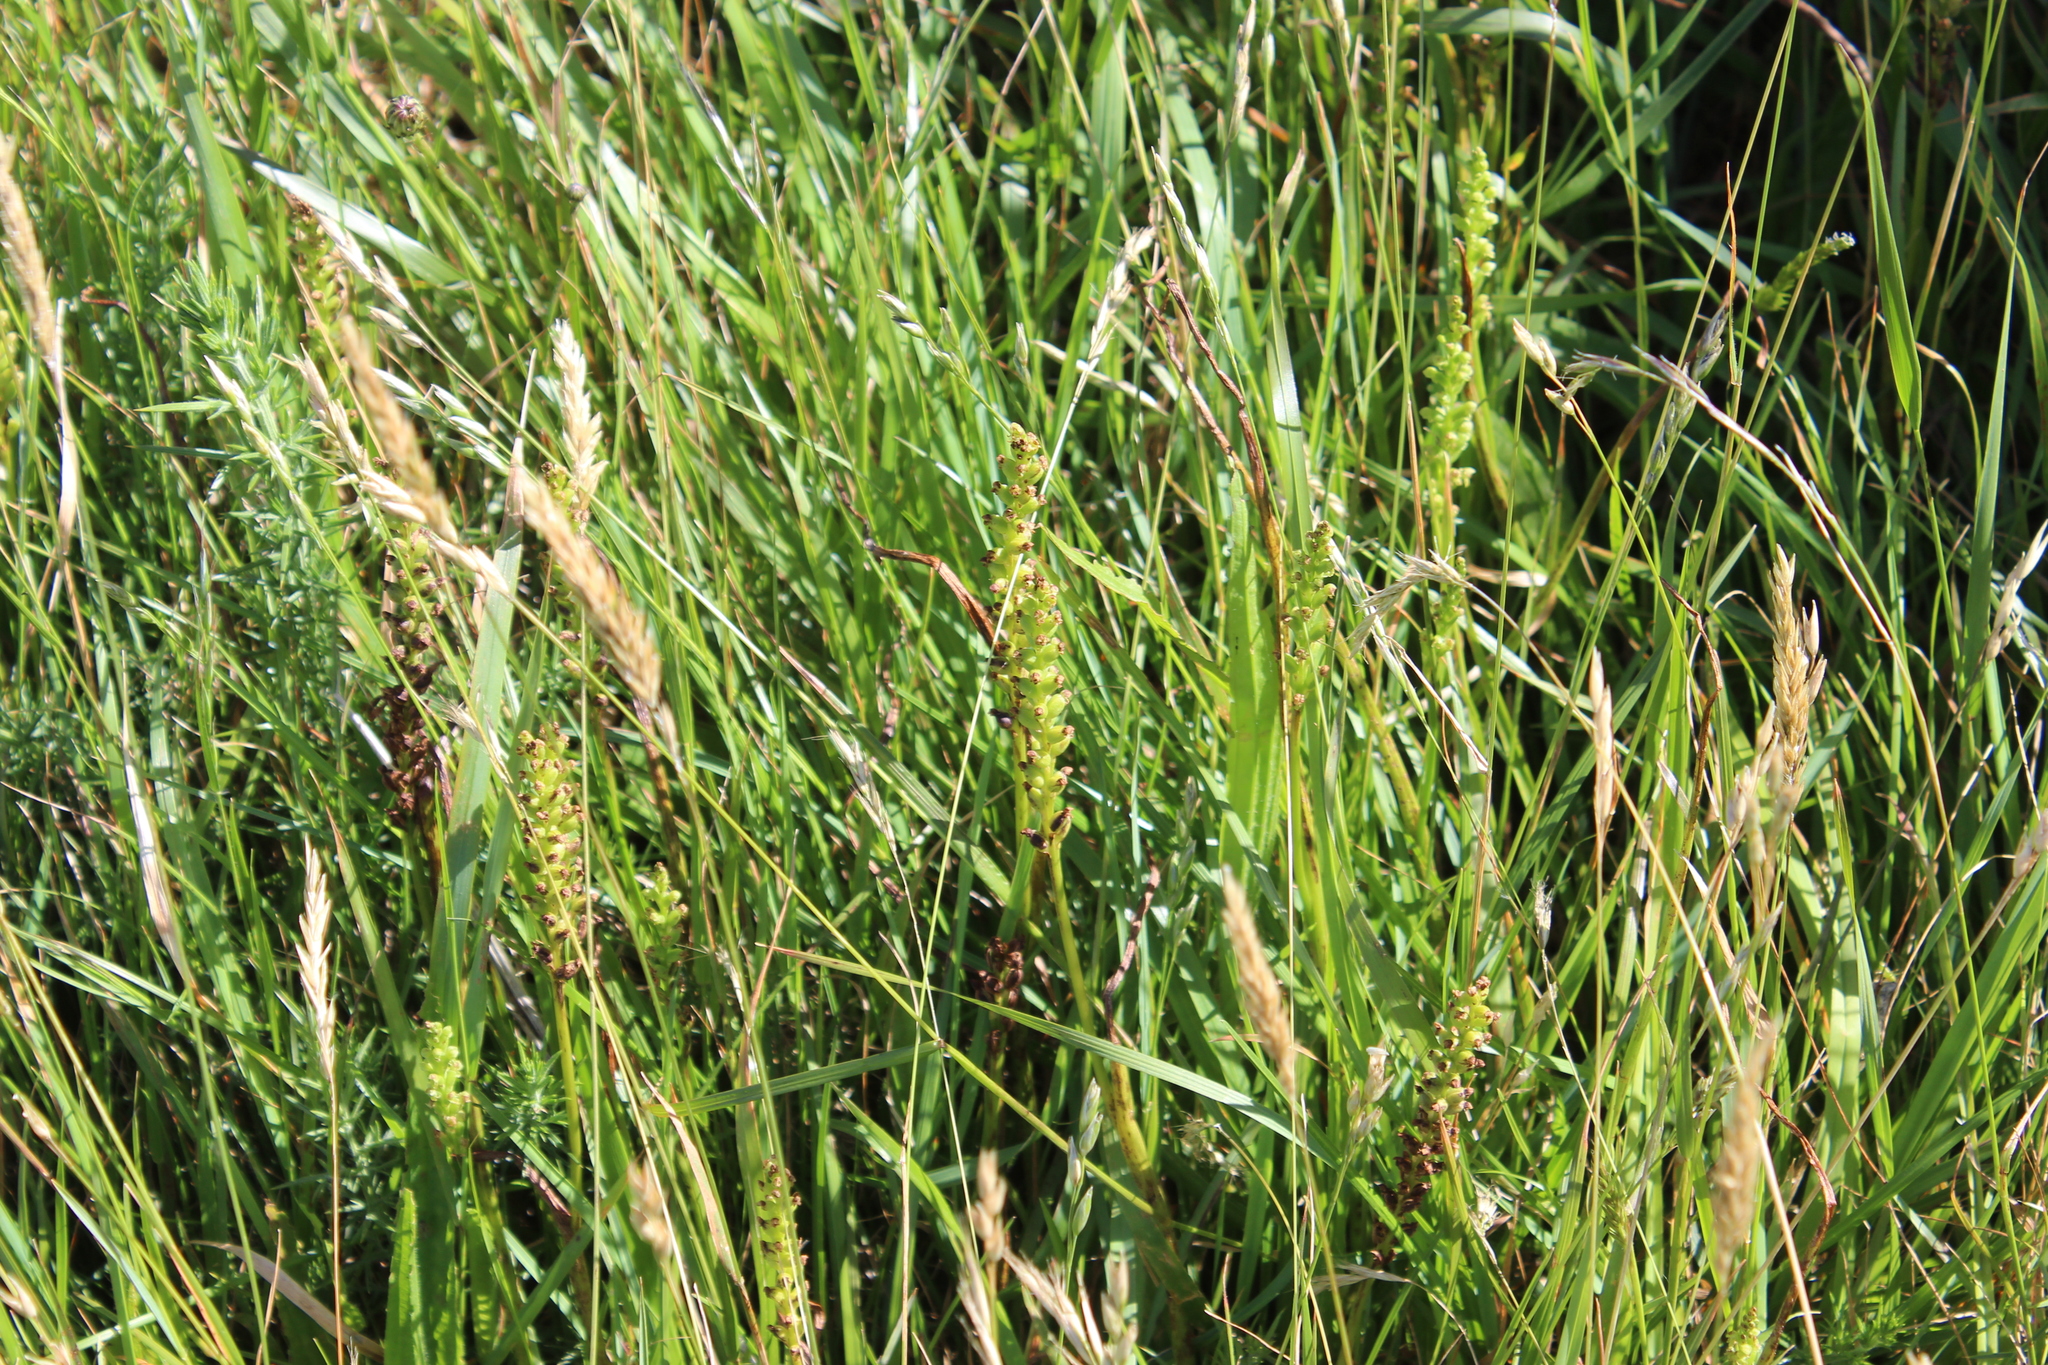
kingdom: Plantae
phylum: Tracheophyta
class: Liliopsida
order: Asparagales
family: Orchidaceae
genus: Microtis
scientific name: Microtis unifolia
